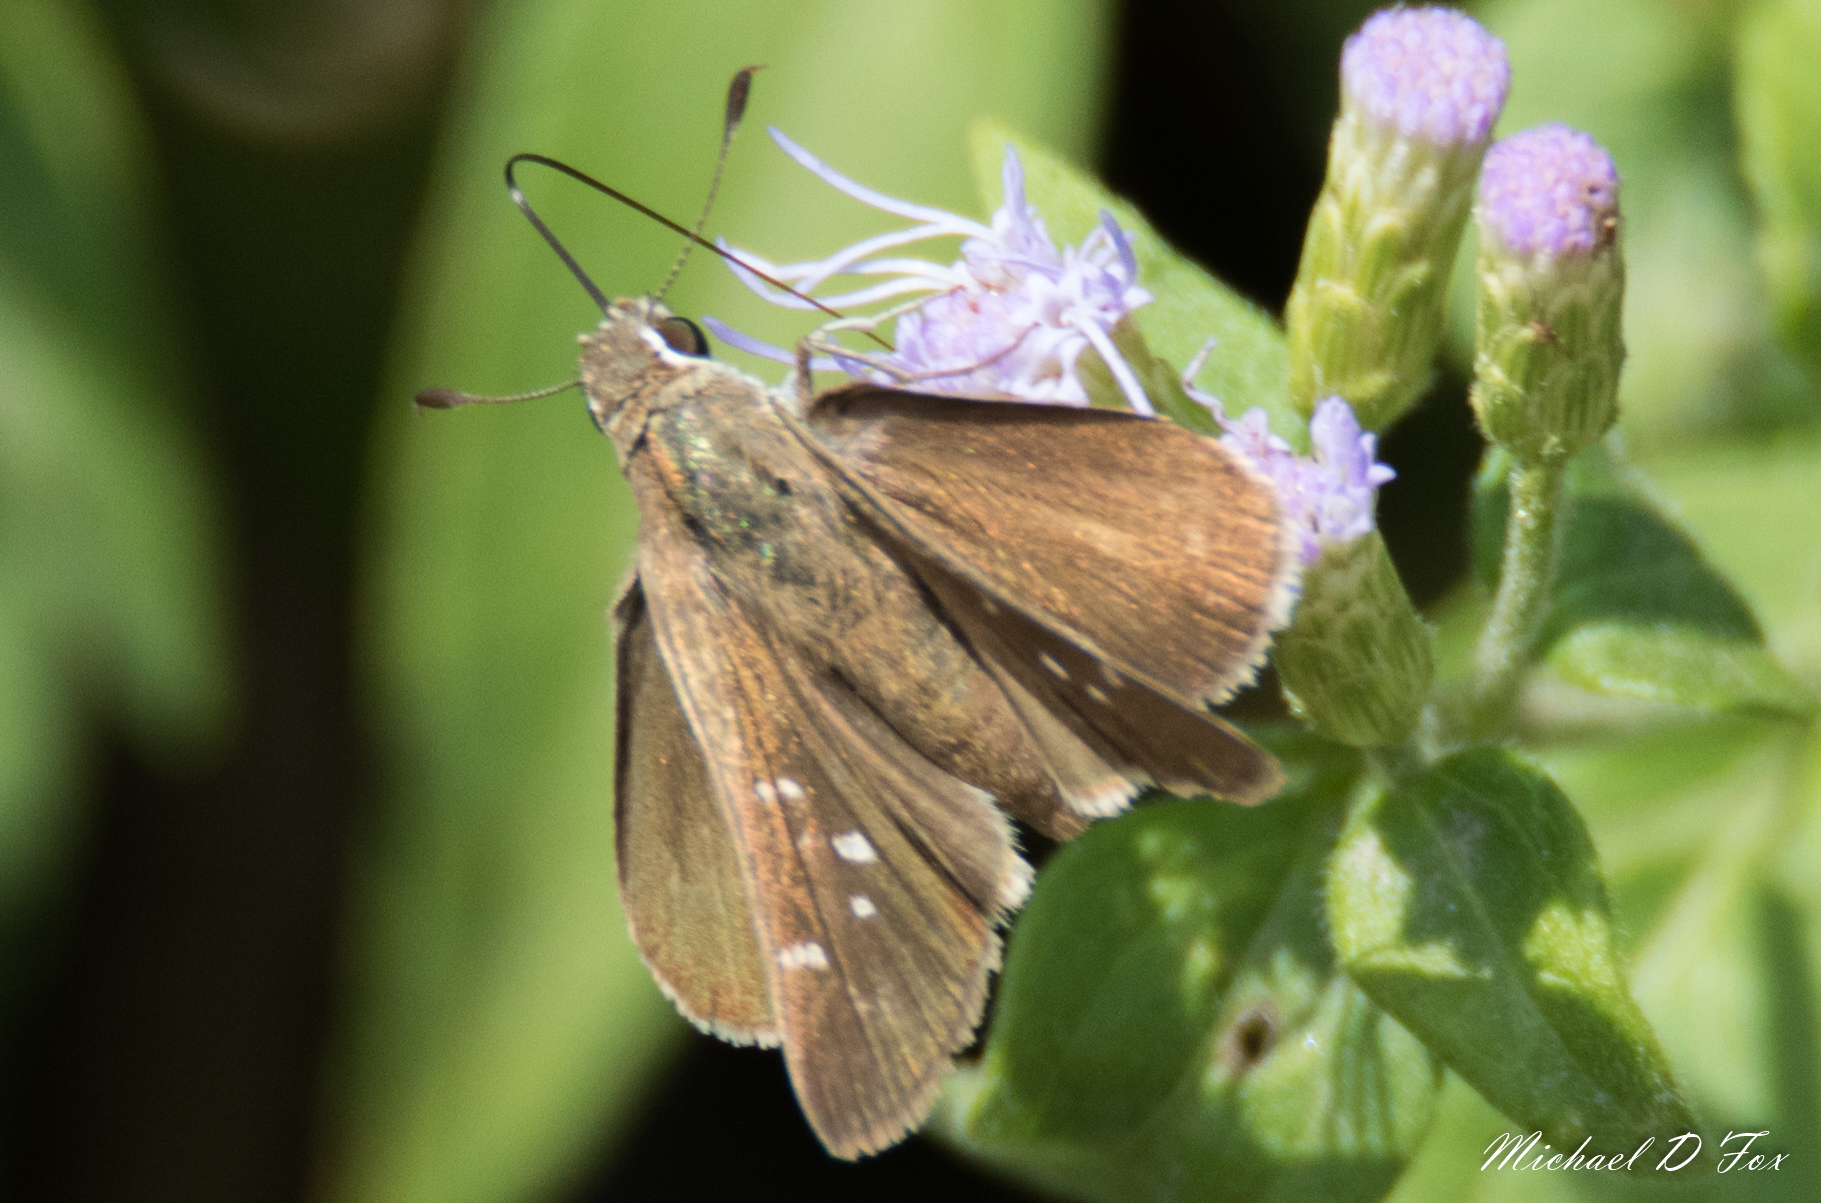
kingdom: Animalia
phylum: Arthropoda
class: Insecta
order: Lepidoptera
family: Hesperiidae
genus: Lerodea
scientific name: Lerodea eufala
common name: Eufala skipper
